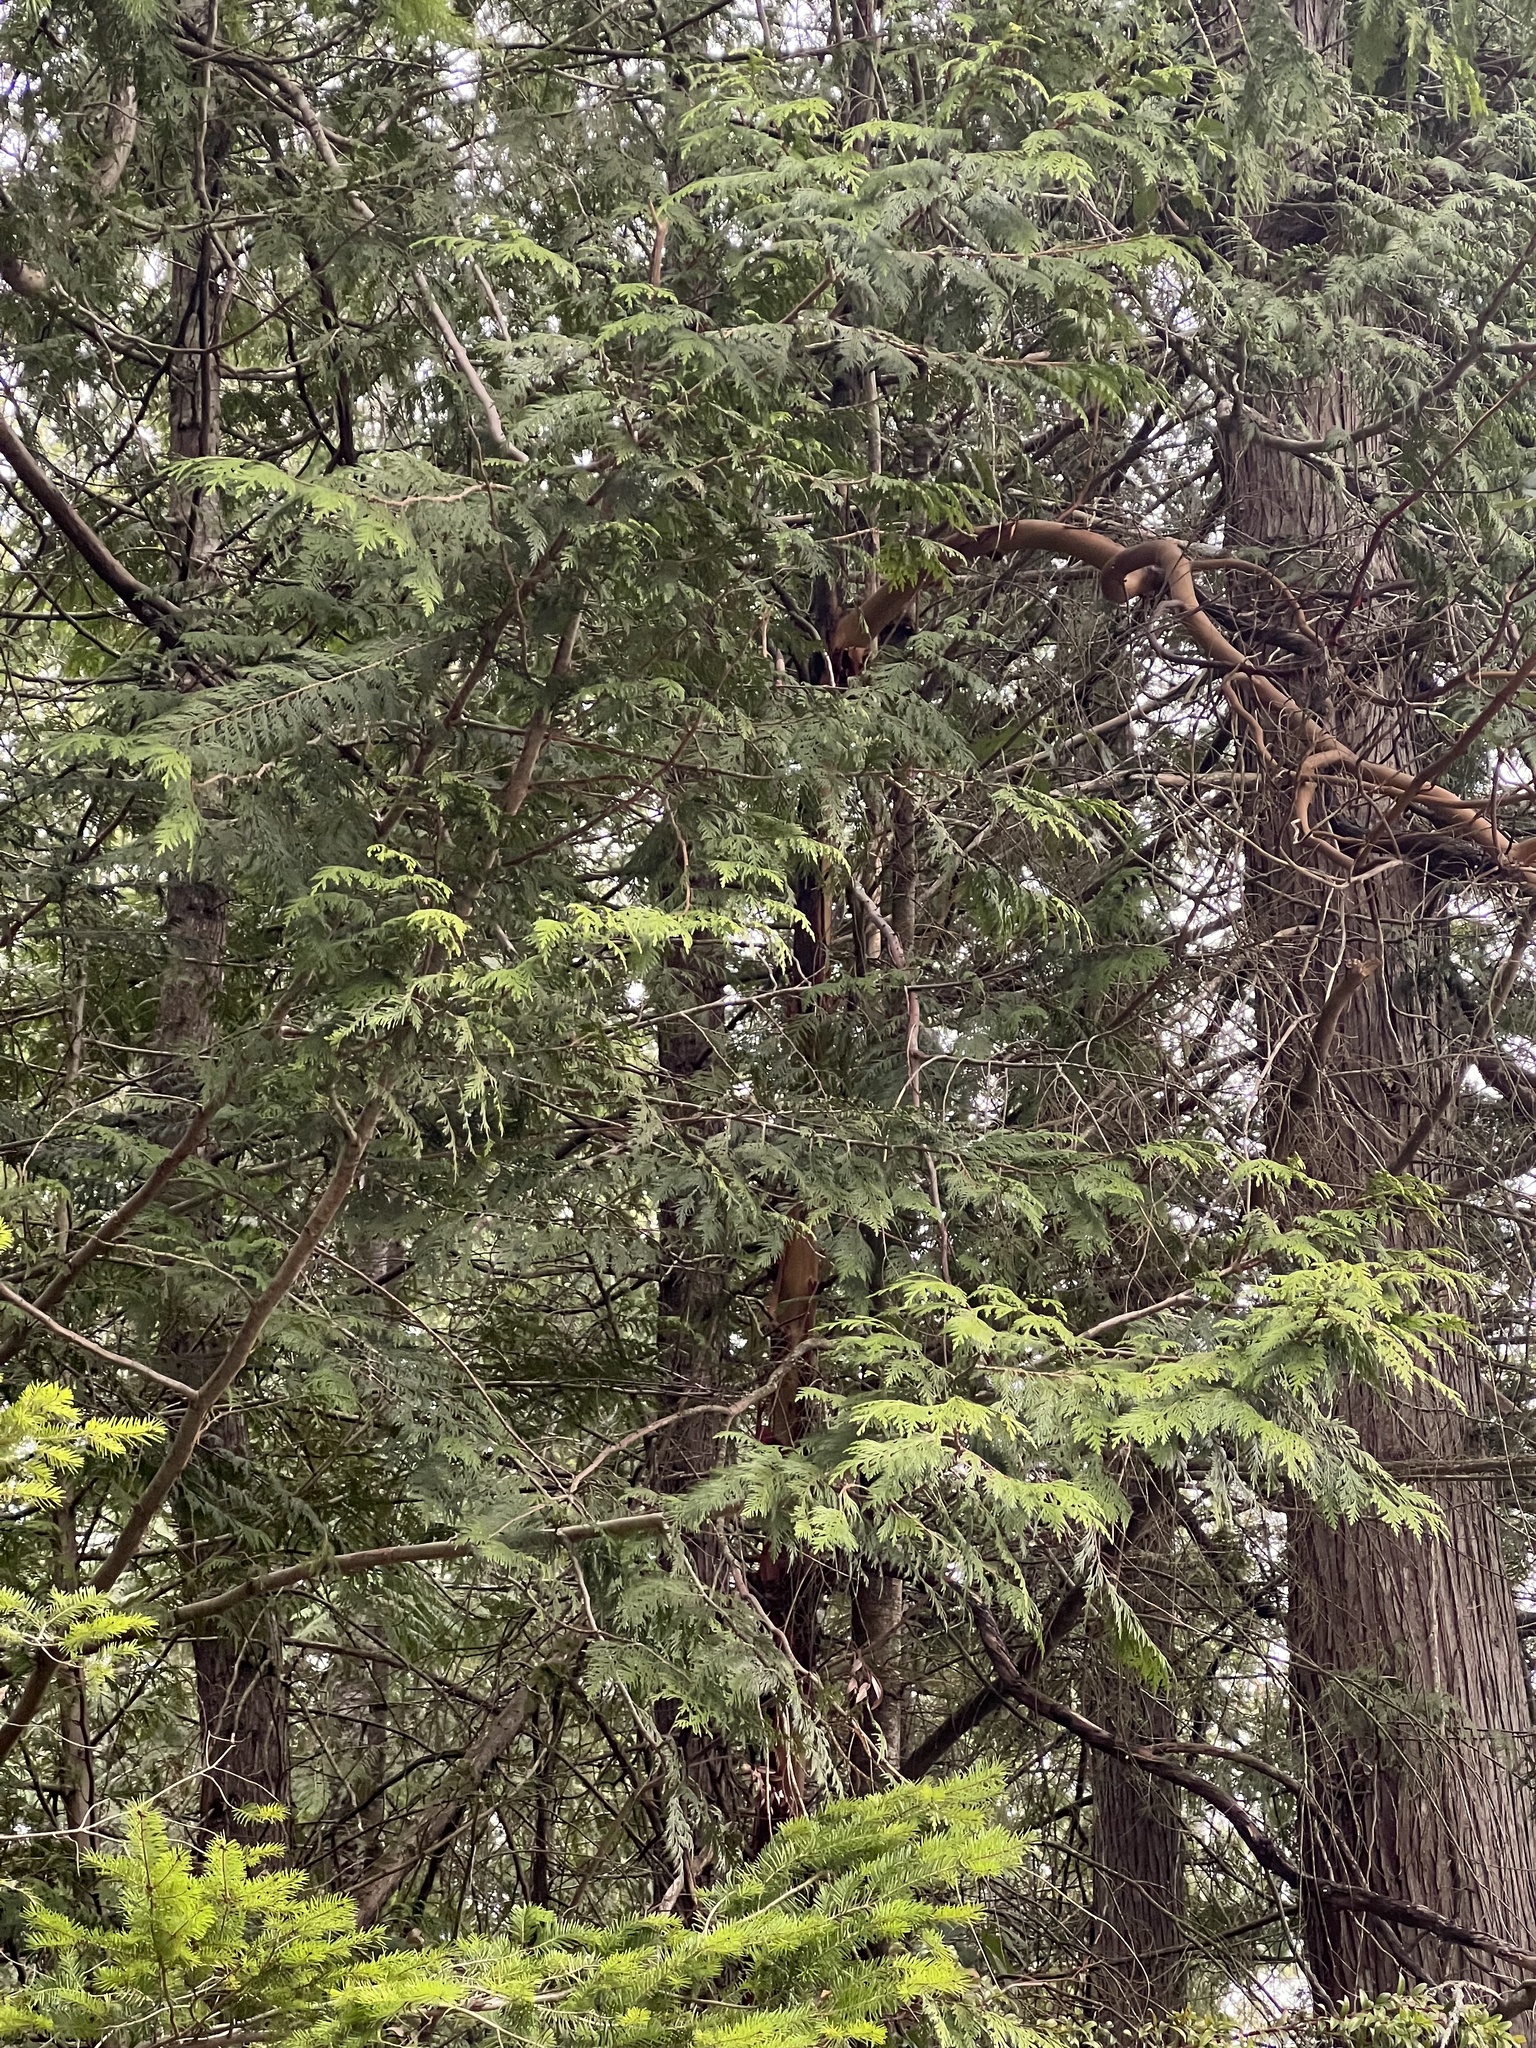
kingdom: Plantae
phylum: Tracheophyta
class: Pinopsida
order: Pinales
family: Cupressaceae
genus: Thuja
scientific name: Thuja plicata
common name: Western red-cedar
